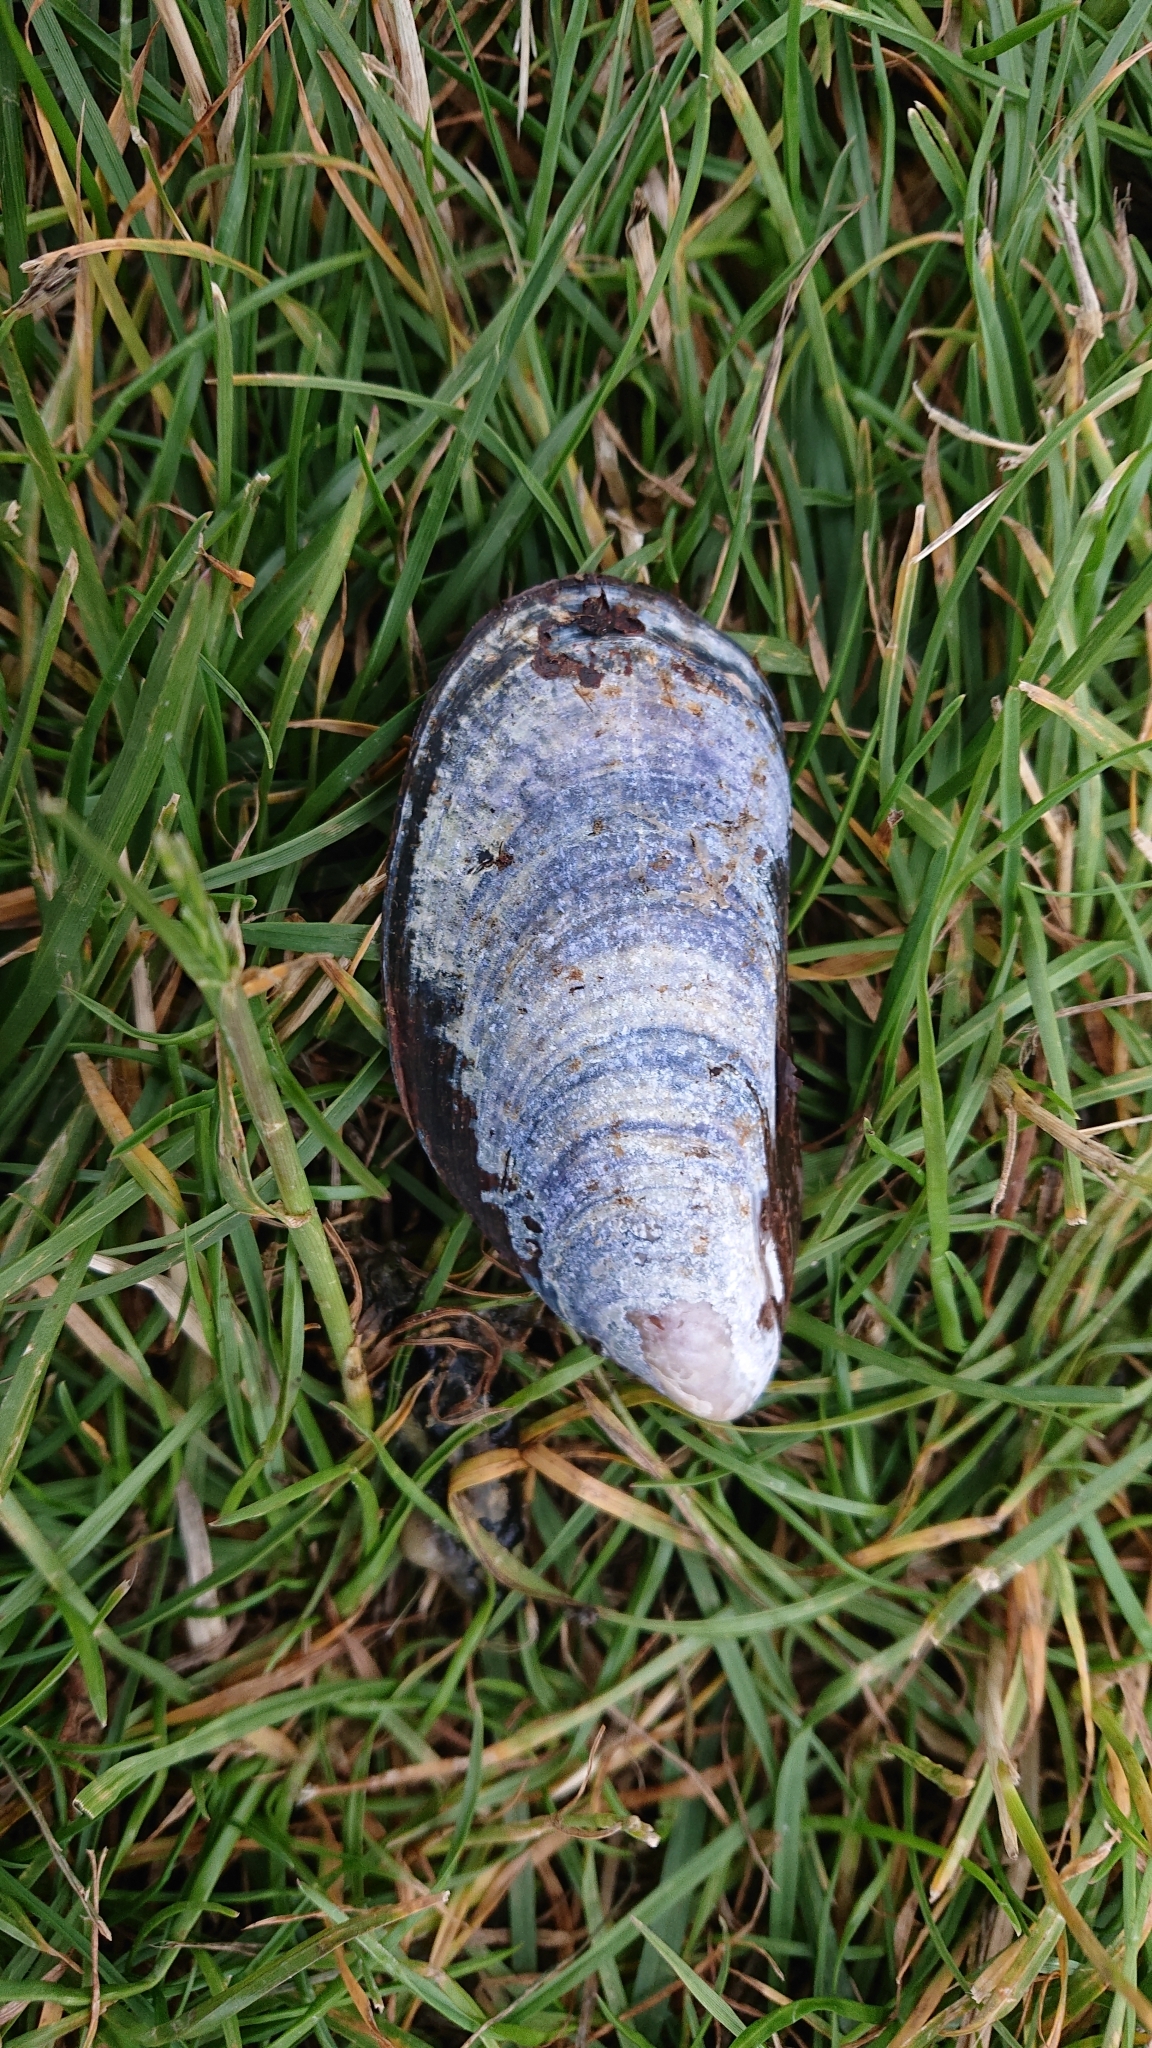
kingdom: Animalia
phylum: Mollusca
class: Bivalvia
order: Mytilida
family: Mytilidae
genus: Mytilus
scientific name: Mytilus edulis
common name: Blue mussel
